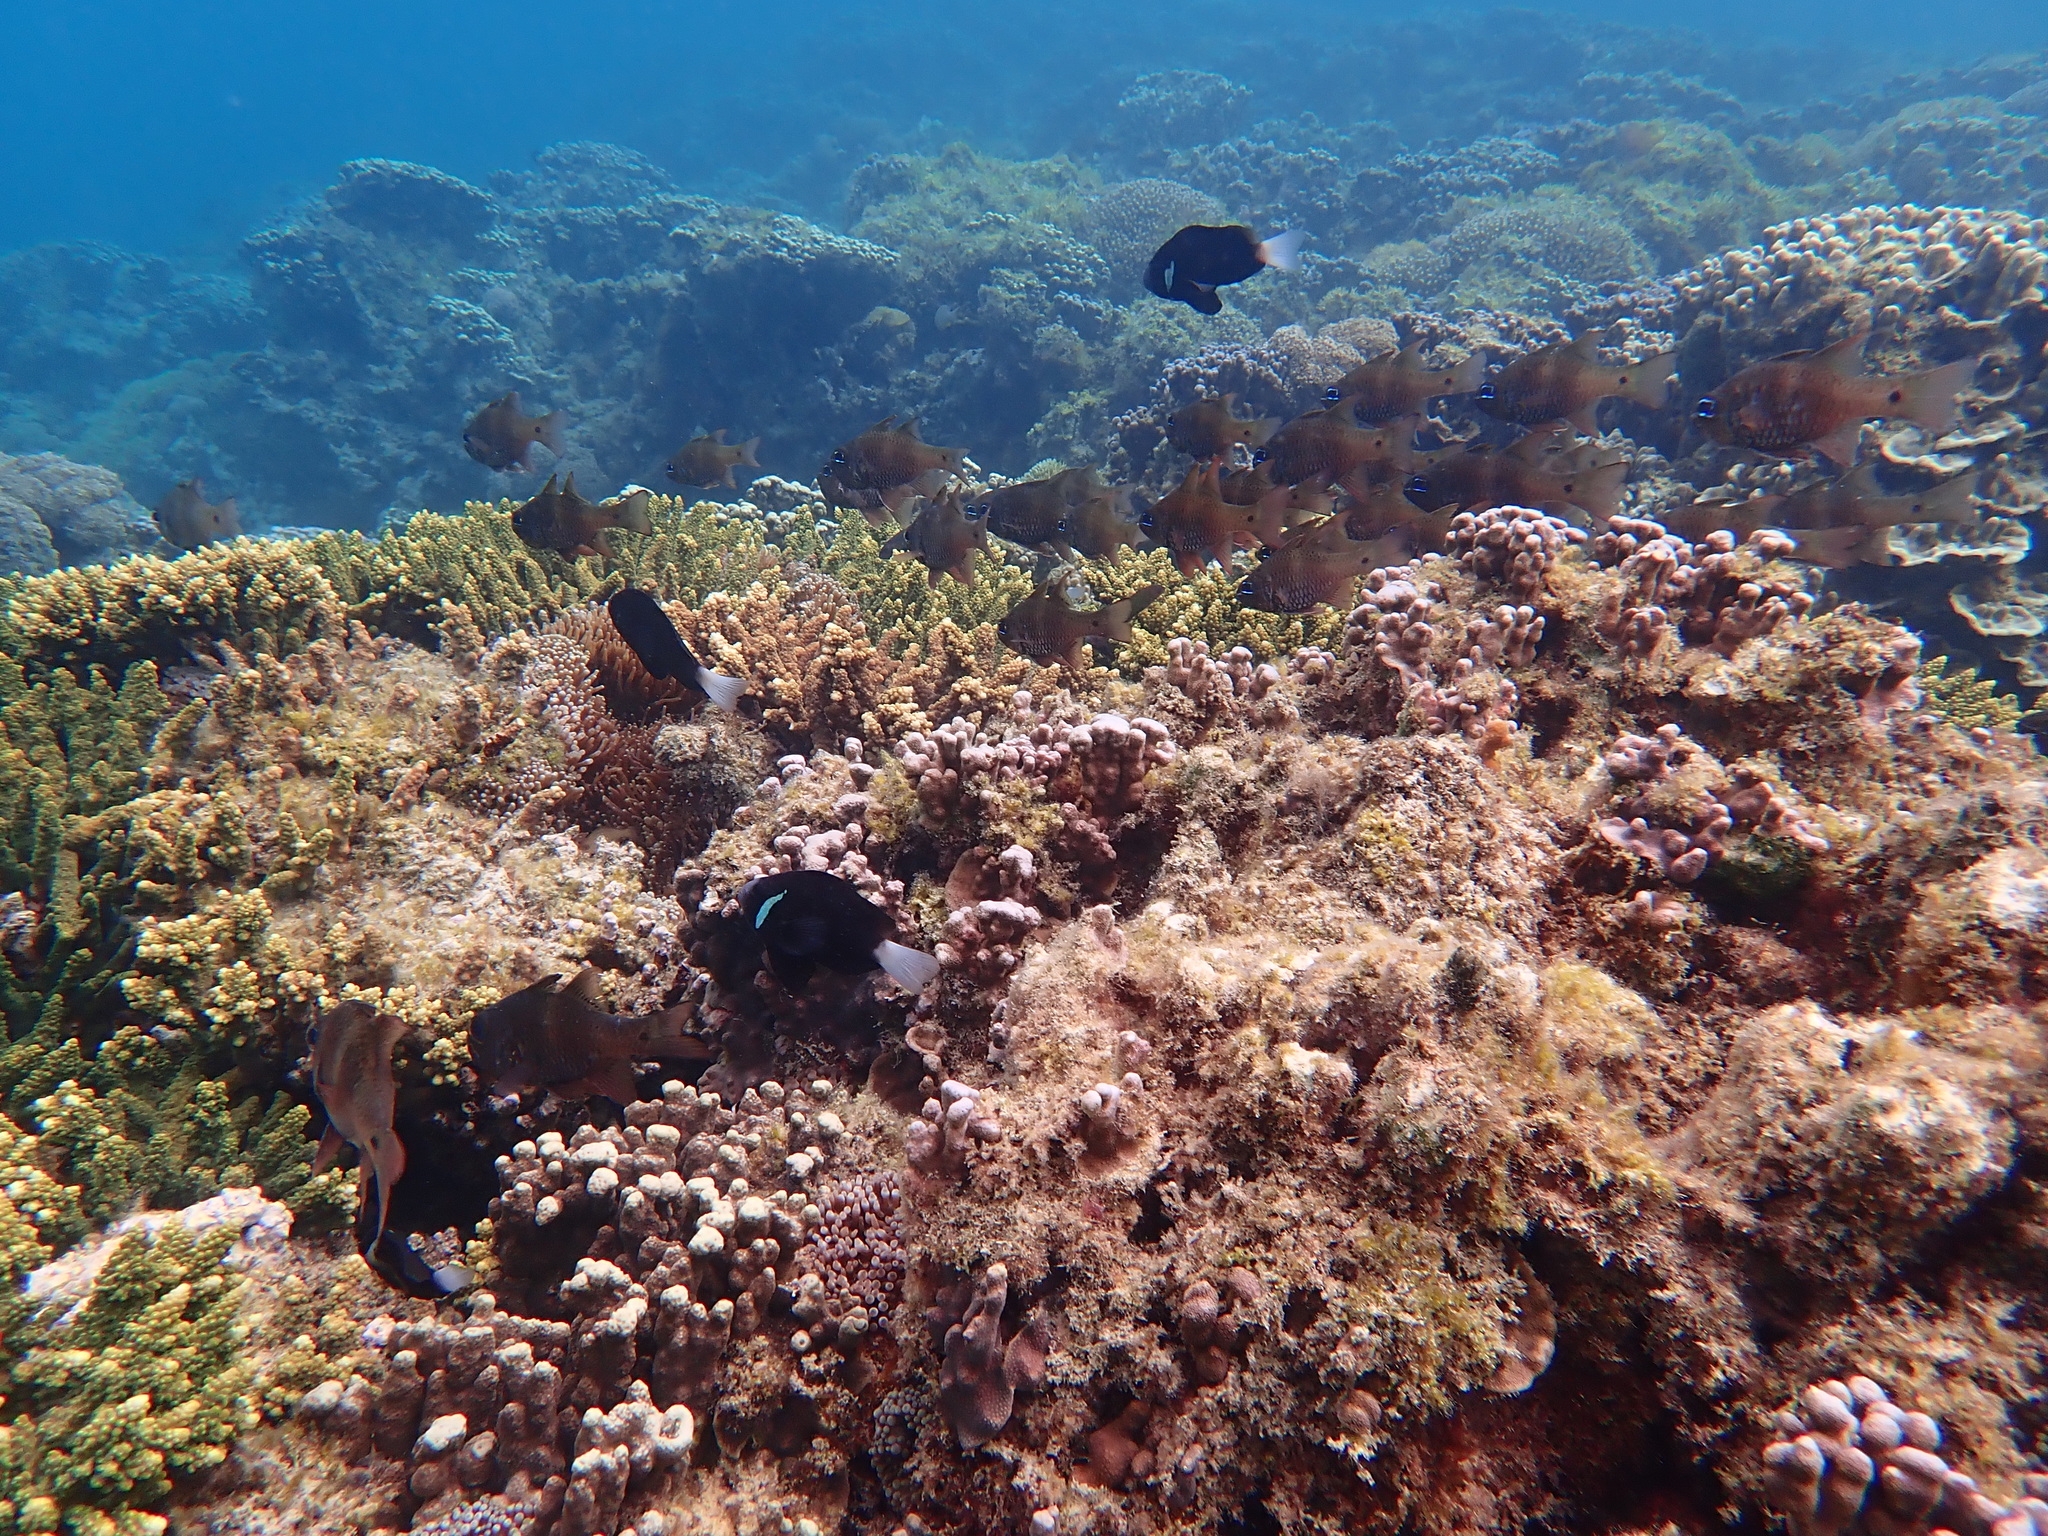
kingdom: Animalia
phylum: Chordata
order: Perciformes
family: Pomacentridae
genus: Amphiprion
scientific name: Amphiprion mccullochi
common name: Mcculloch's anemonefish
